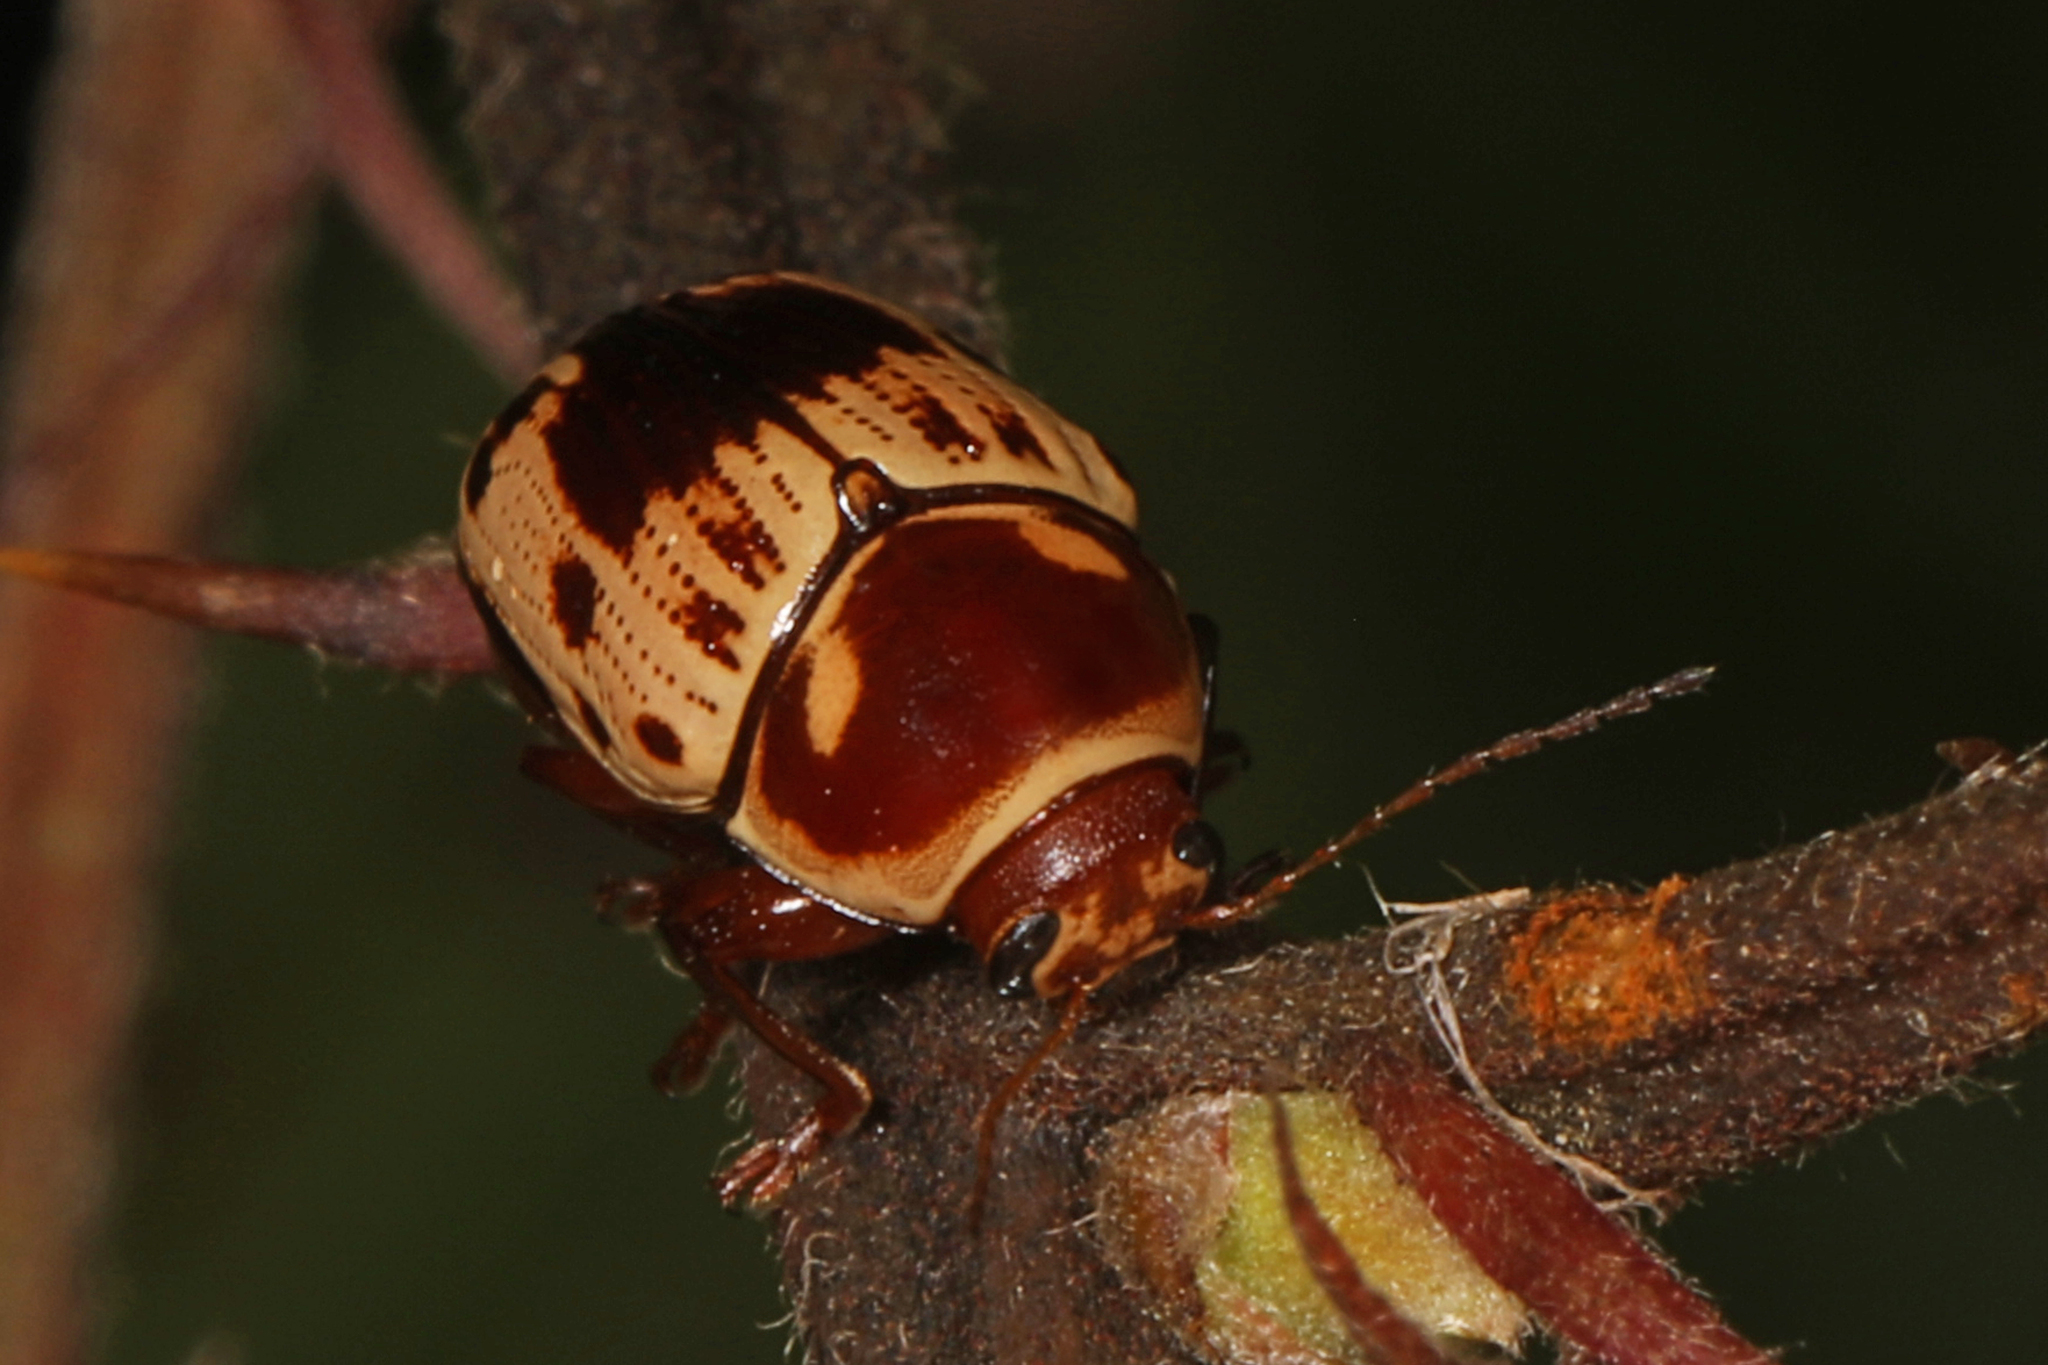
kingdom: Animalia
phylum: Arthropoda
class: Insecta
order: Coleoptera
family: Chrysomelidae
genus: Cryptocephalus
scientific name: Cryptocephalus mutabilis
